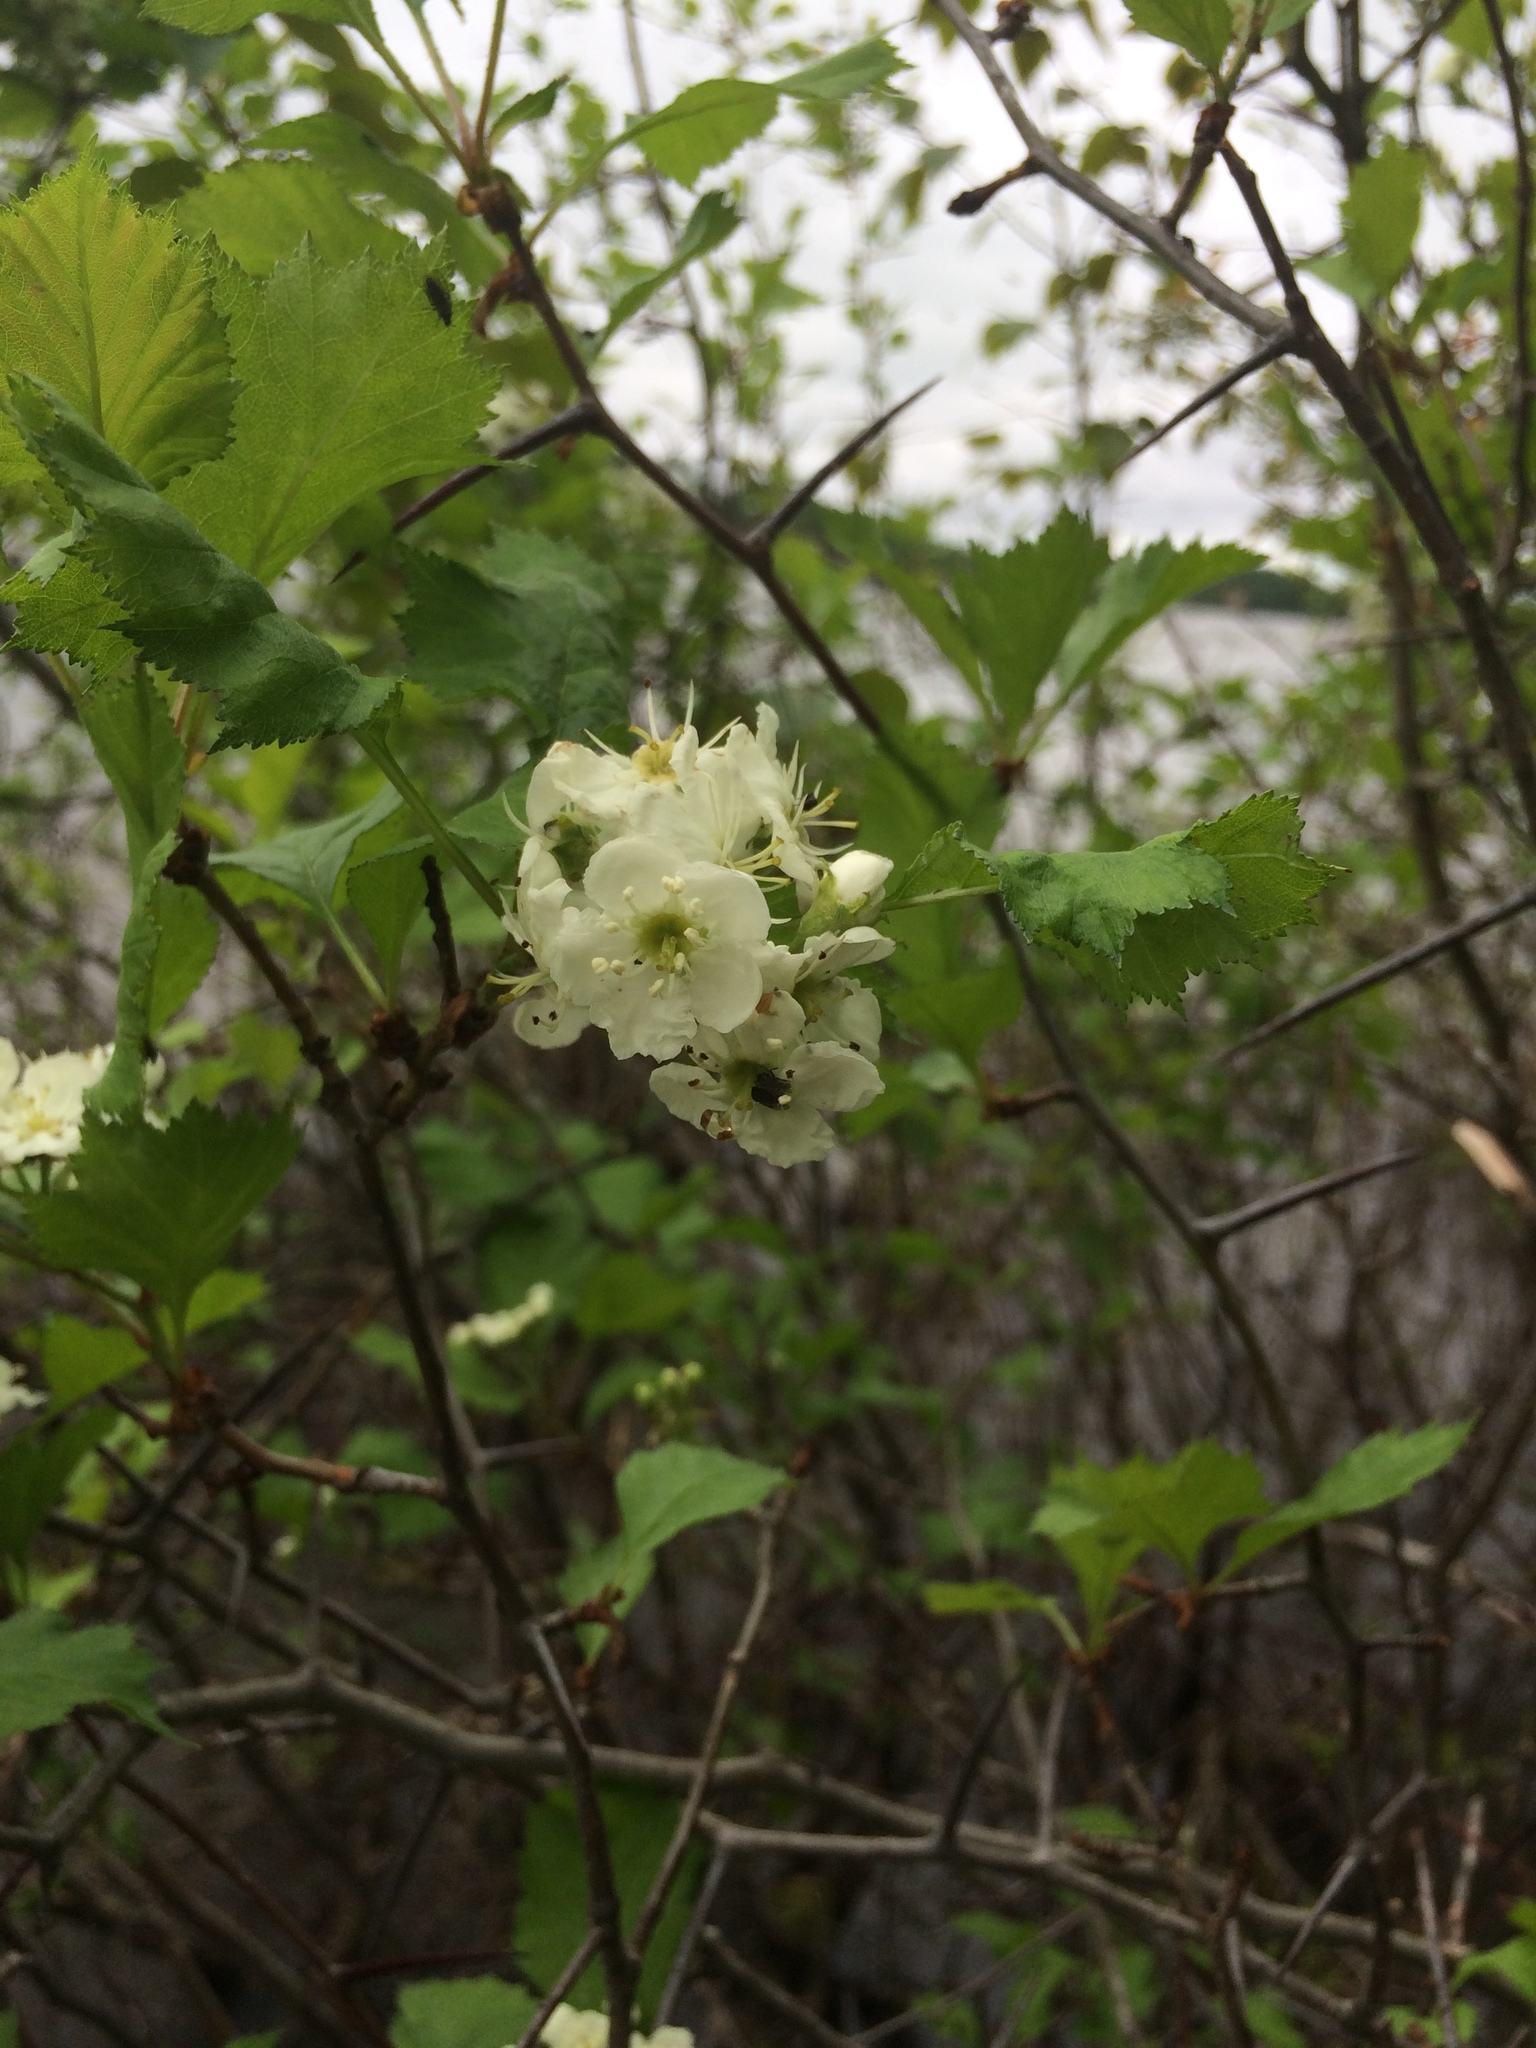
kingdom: Plantae
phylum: Tracheophyta
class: Magnoliopsida
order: Rosales
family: Rosaceae
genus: Crataegus
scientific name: Crataegus chrysocarpa
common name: Fire-berry hawthorn
